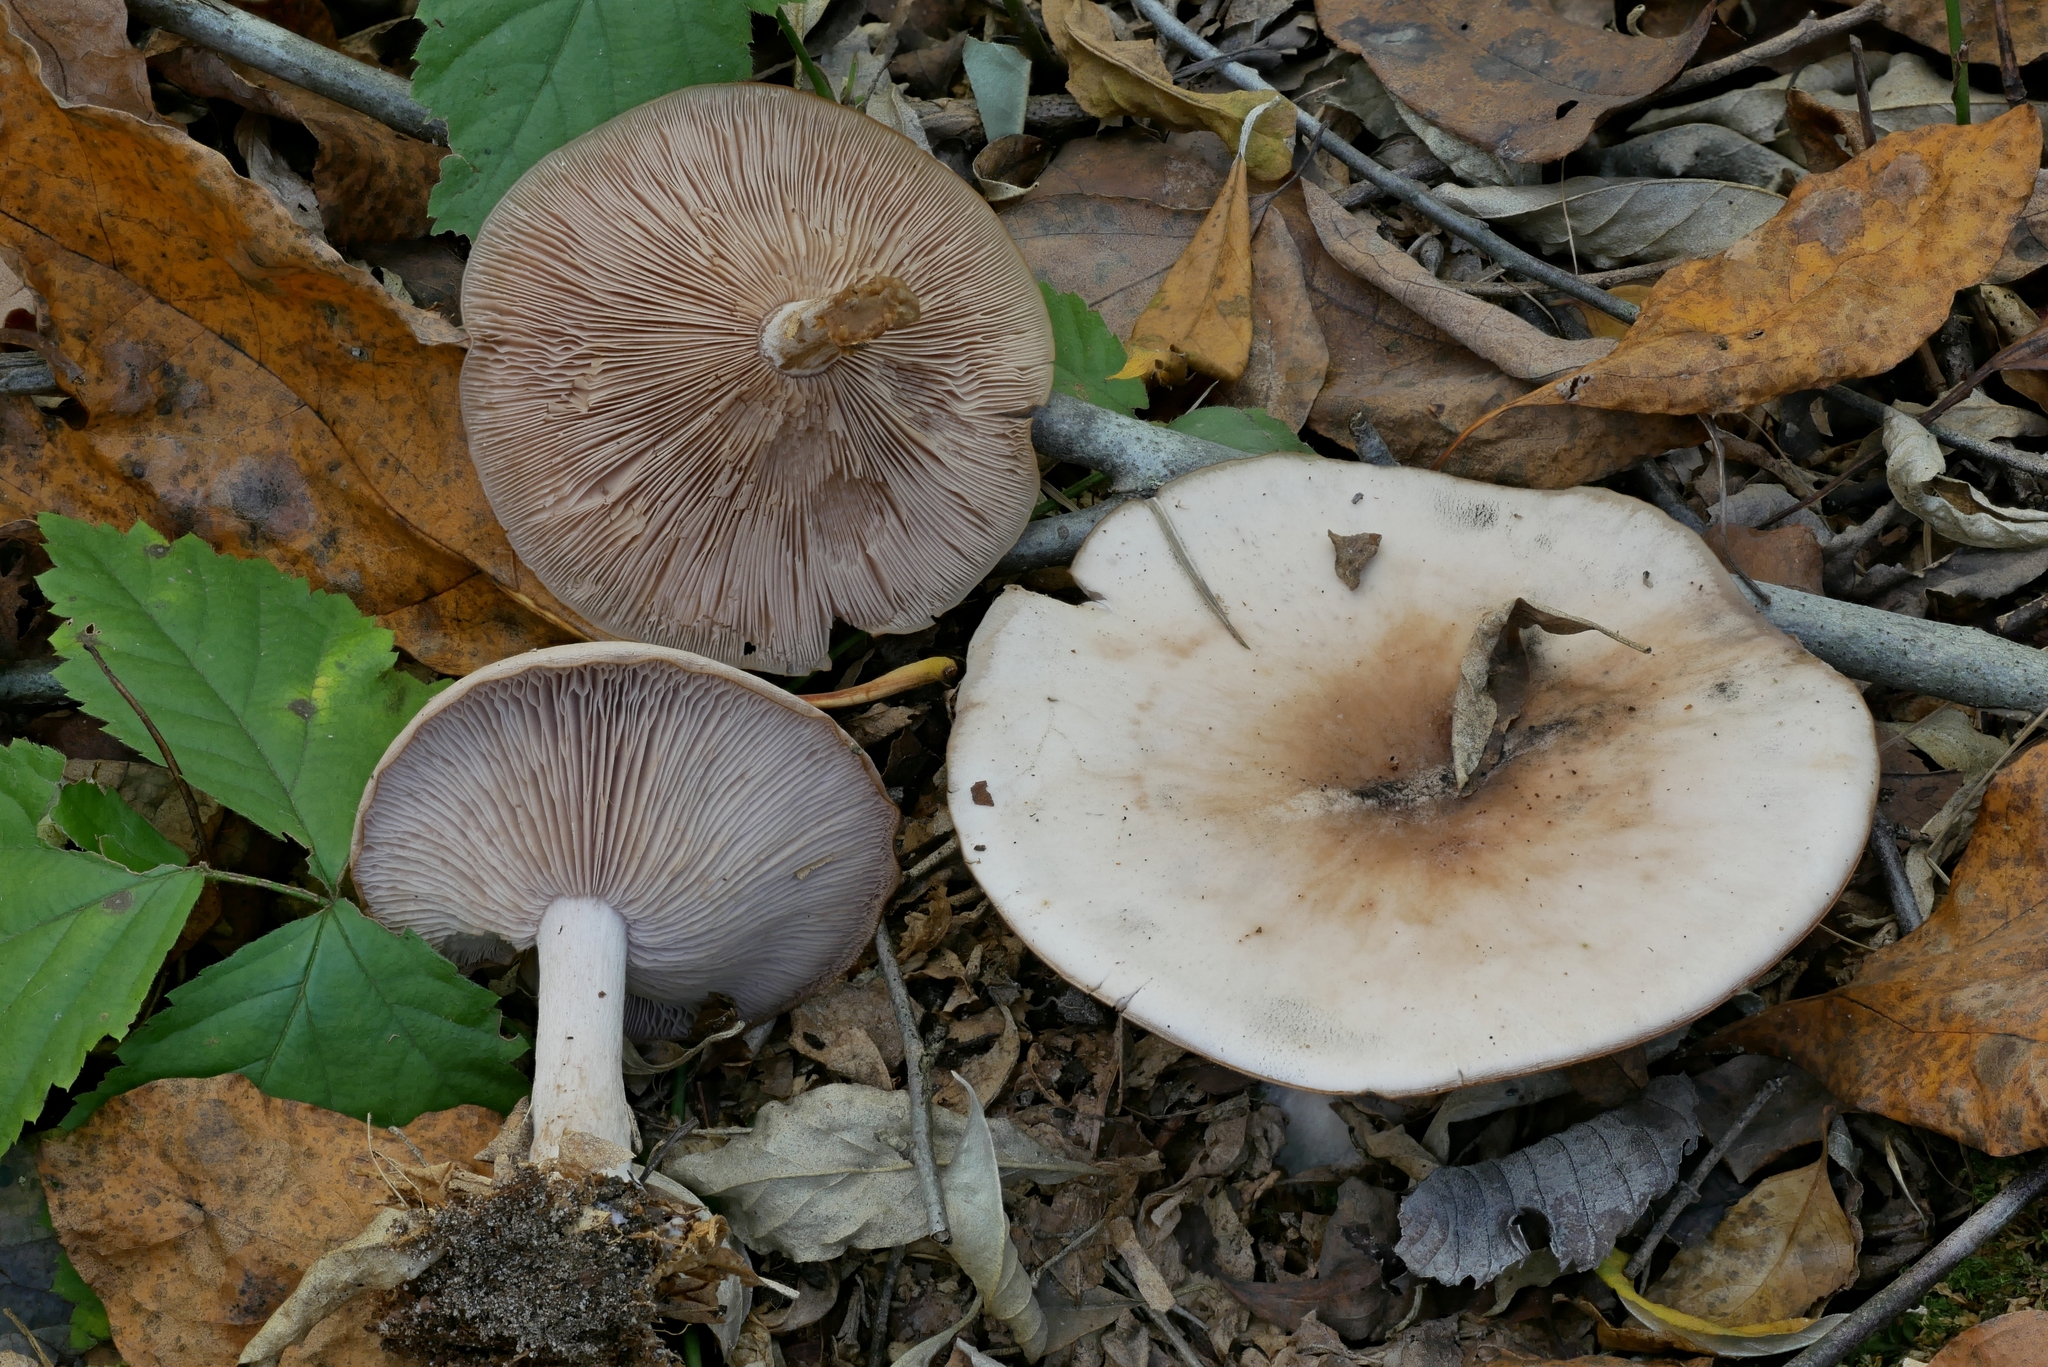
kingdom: Fungi
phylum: Basidiomycota
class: Agaricomycetes
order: Agaricales
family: Tricholomataceae
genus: Collybia
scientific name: Collybia
